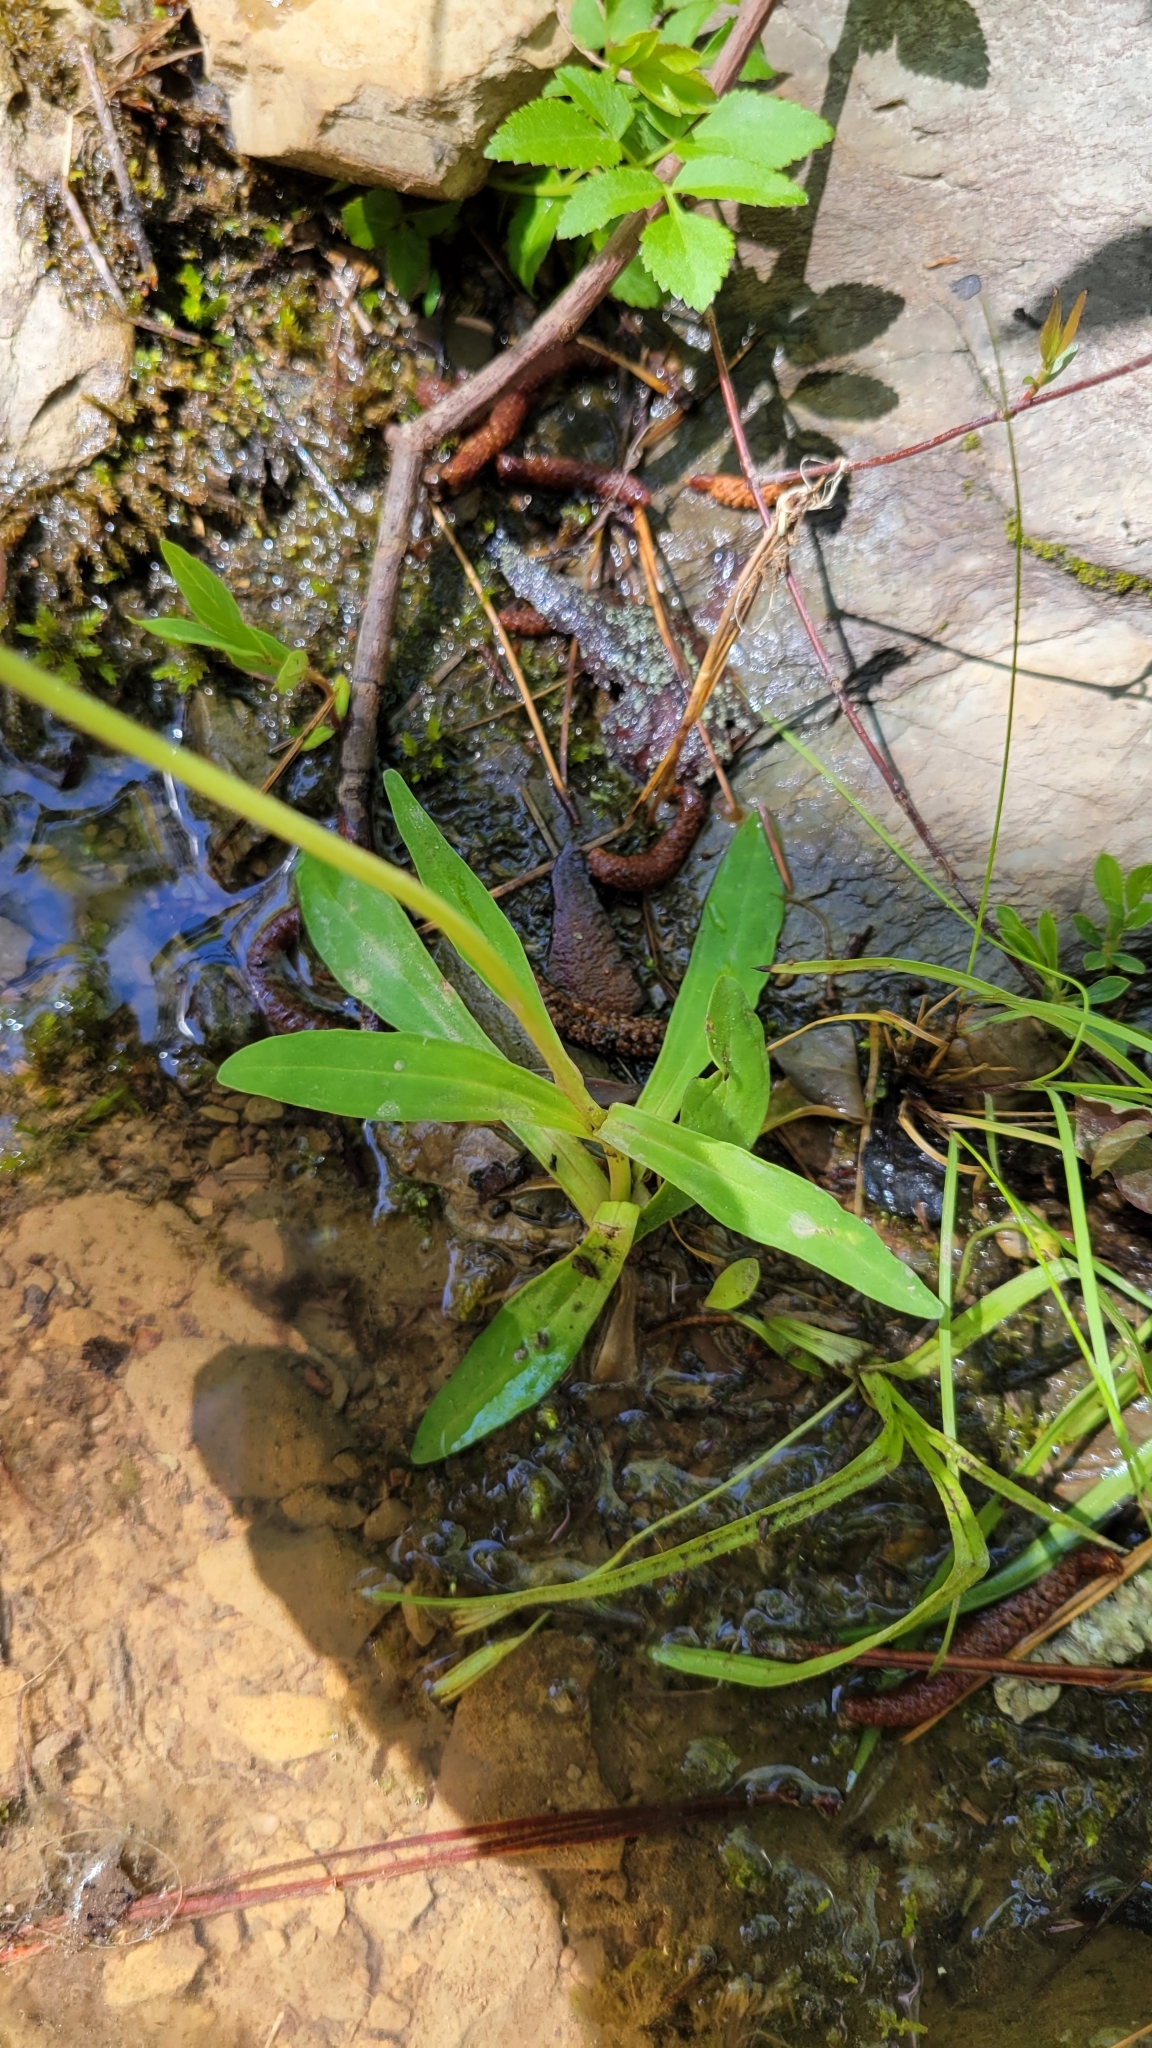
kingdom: Plantae
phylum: Tracheophyta
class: Magnoliopsida
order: Asterales
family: Asteraceae
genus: Marshallia
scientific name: Marshallia obovata
